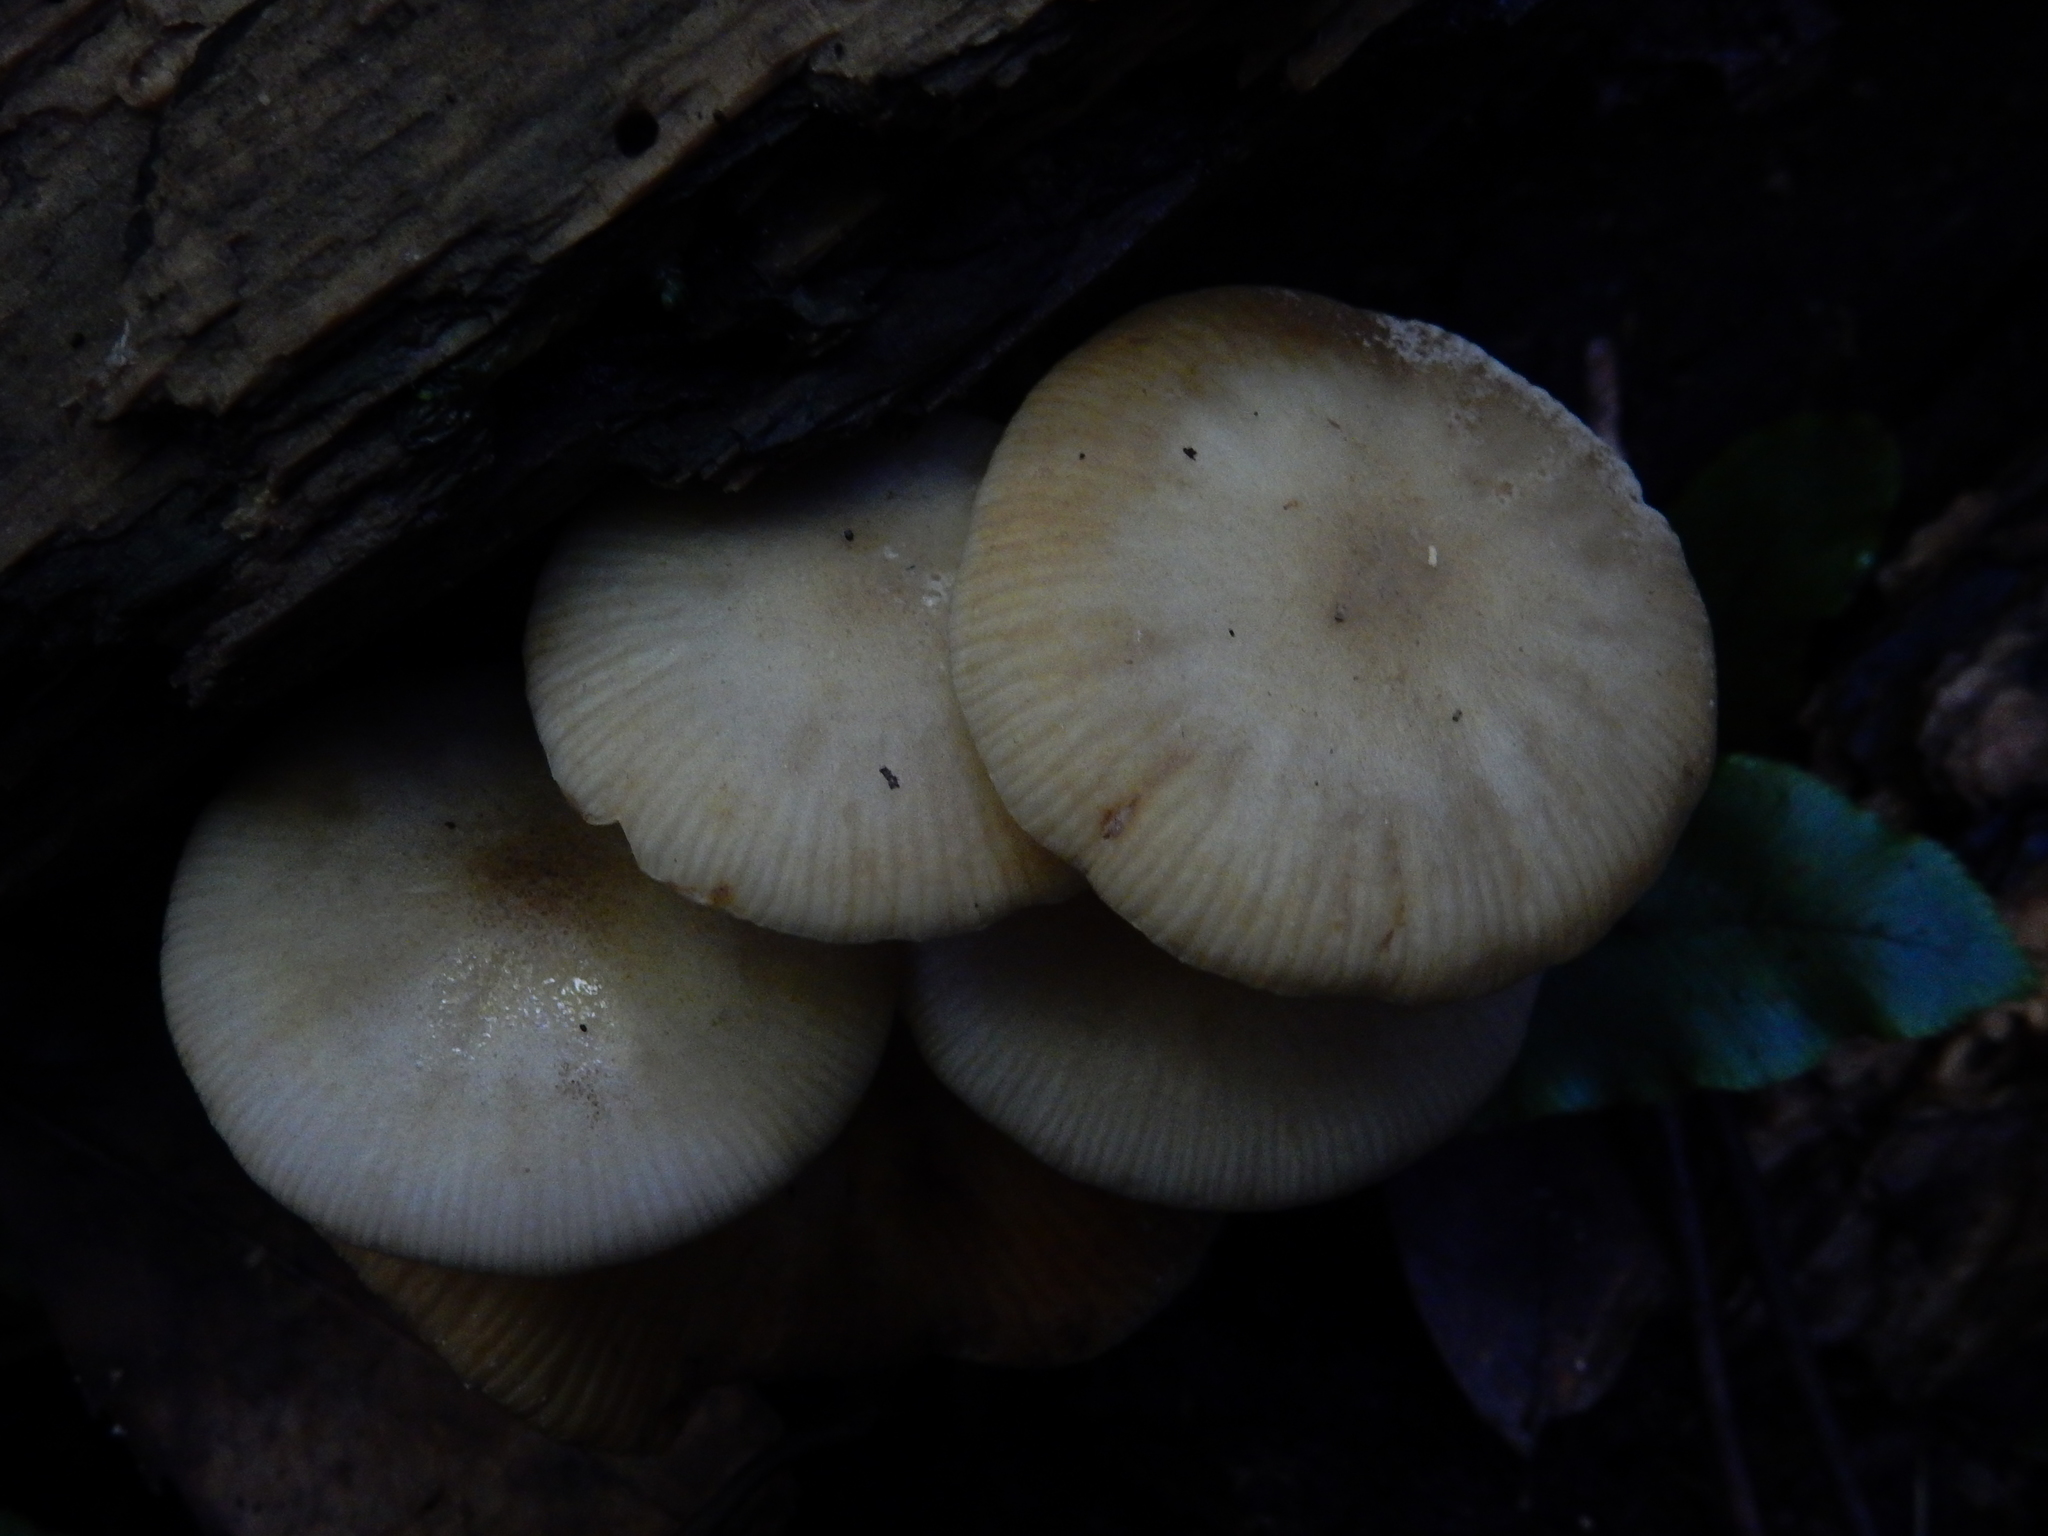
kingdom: Fungi
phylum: Basidiomycota
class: Agaricomycetes
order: Agaricales
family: Physalacriaceae
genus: Armillaria
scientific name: Armillaria novae-zelandiae
